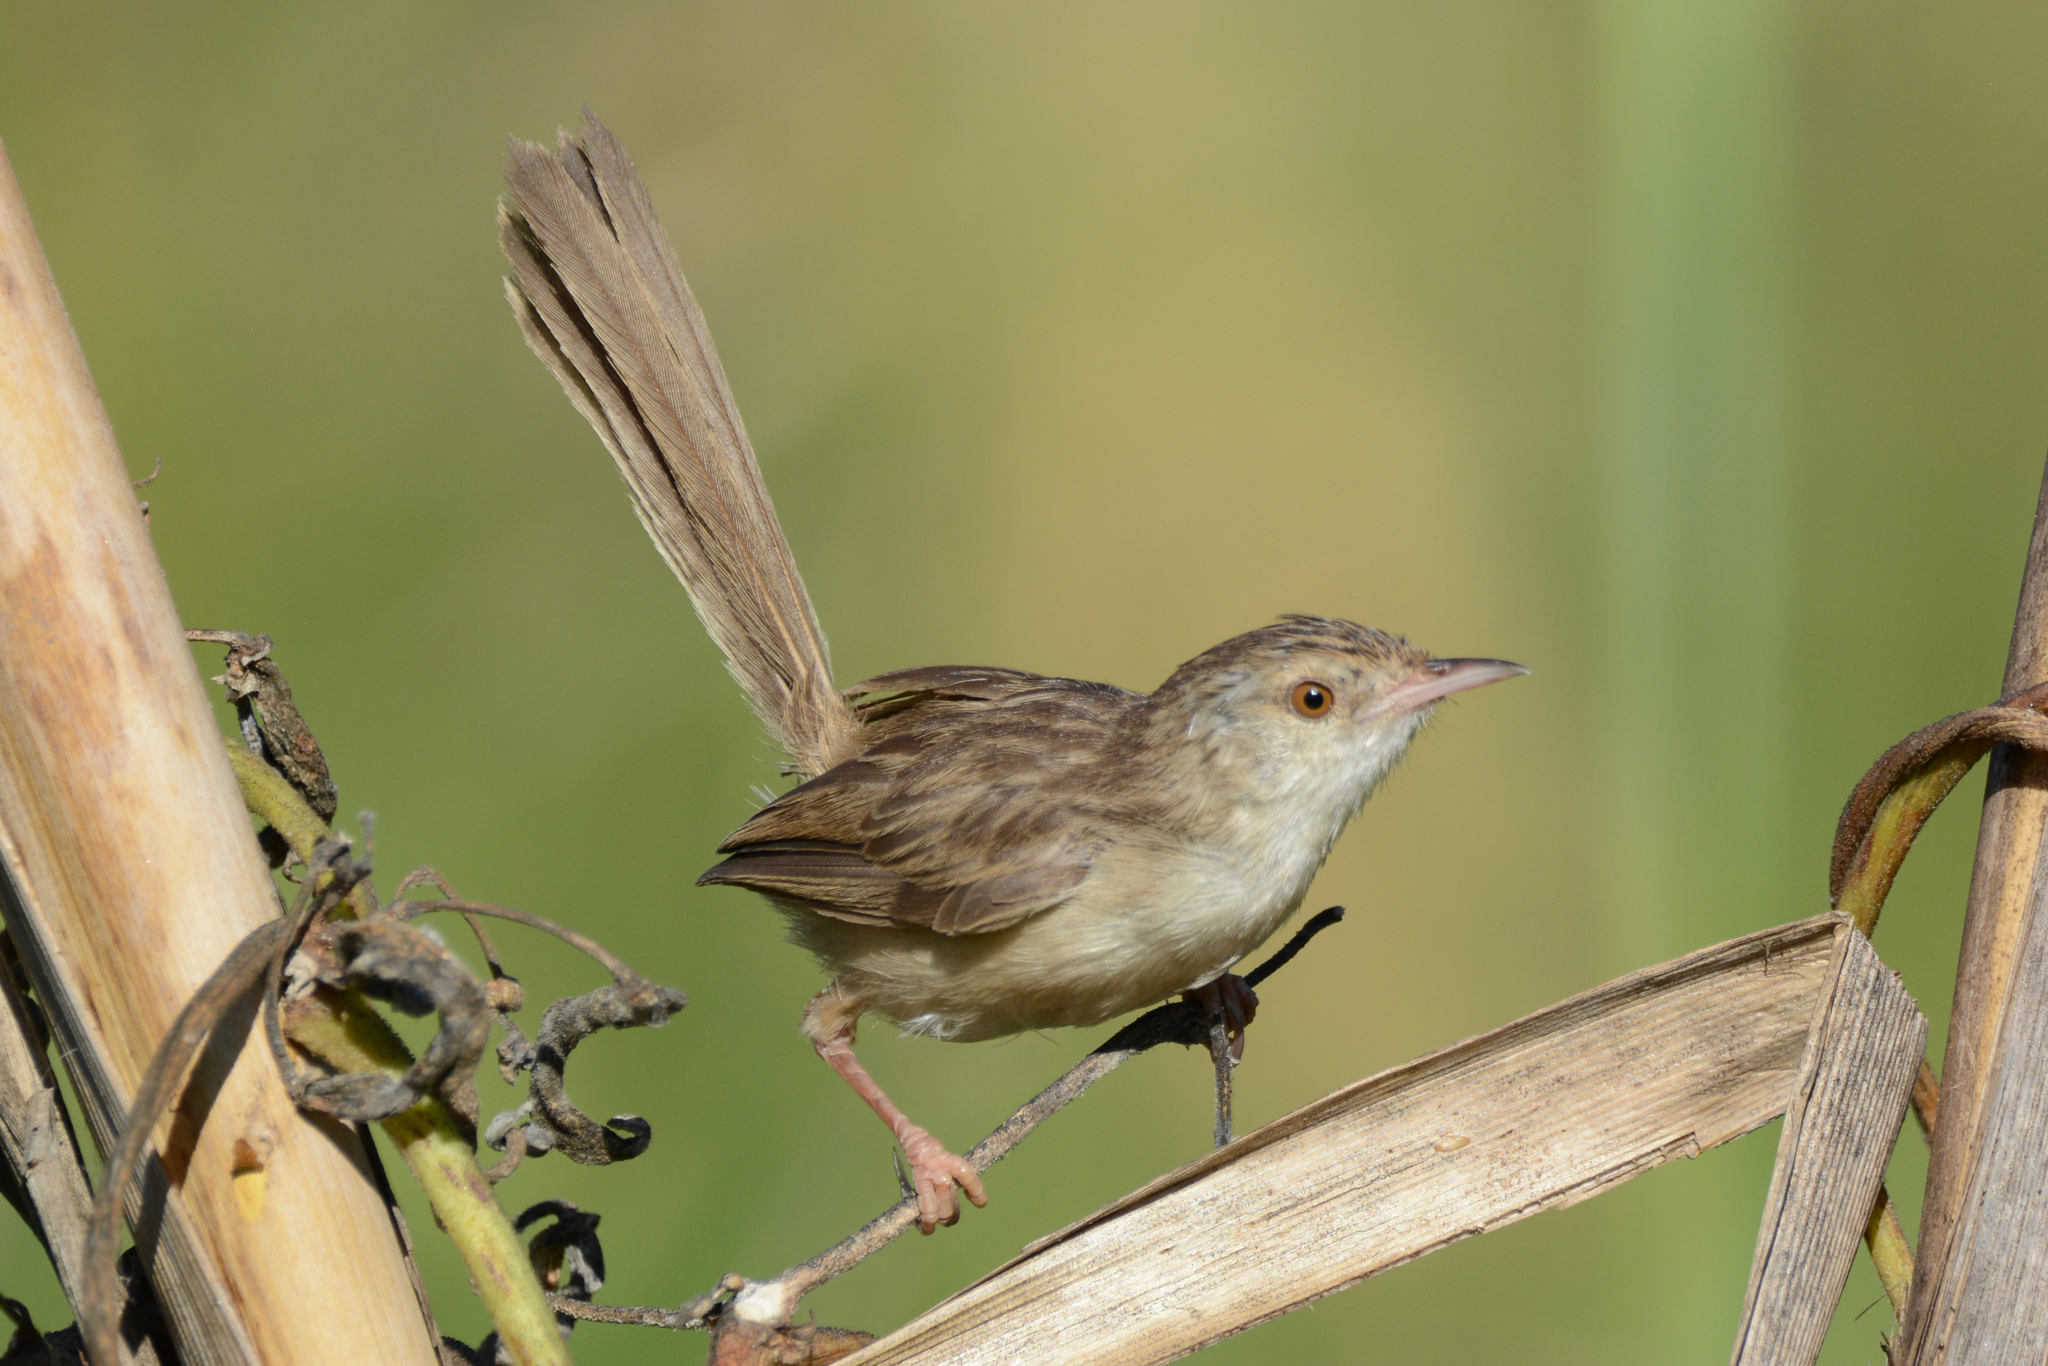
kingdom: Animalia
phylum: Chordata
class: Aves
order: Passeriformes
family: Cisticolidae
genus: Prinia
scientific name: Prinia lepida
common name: Delicate prinia
